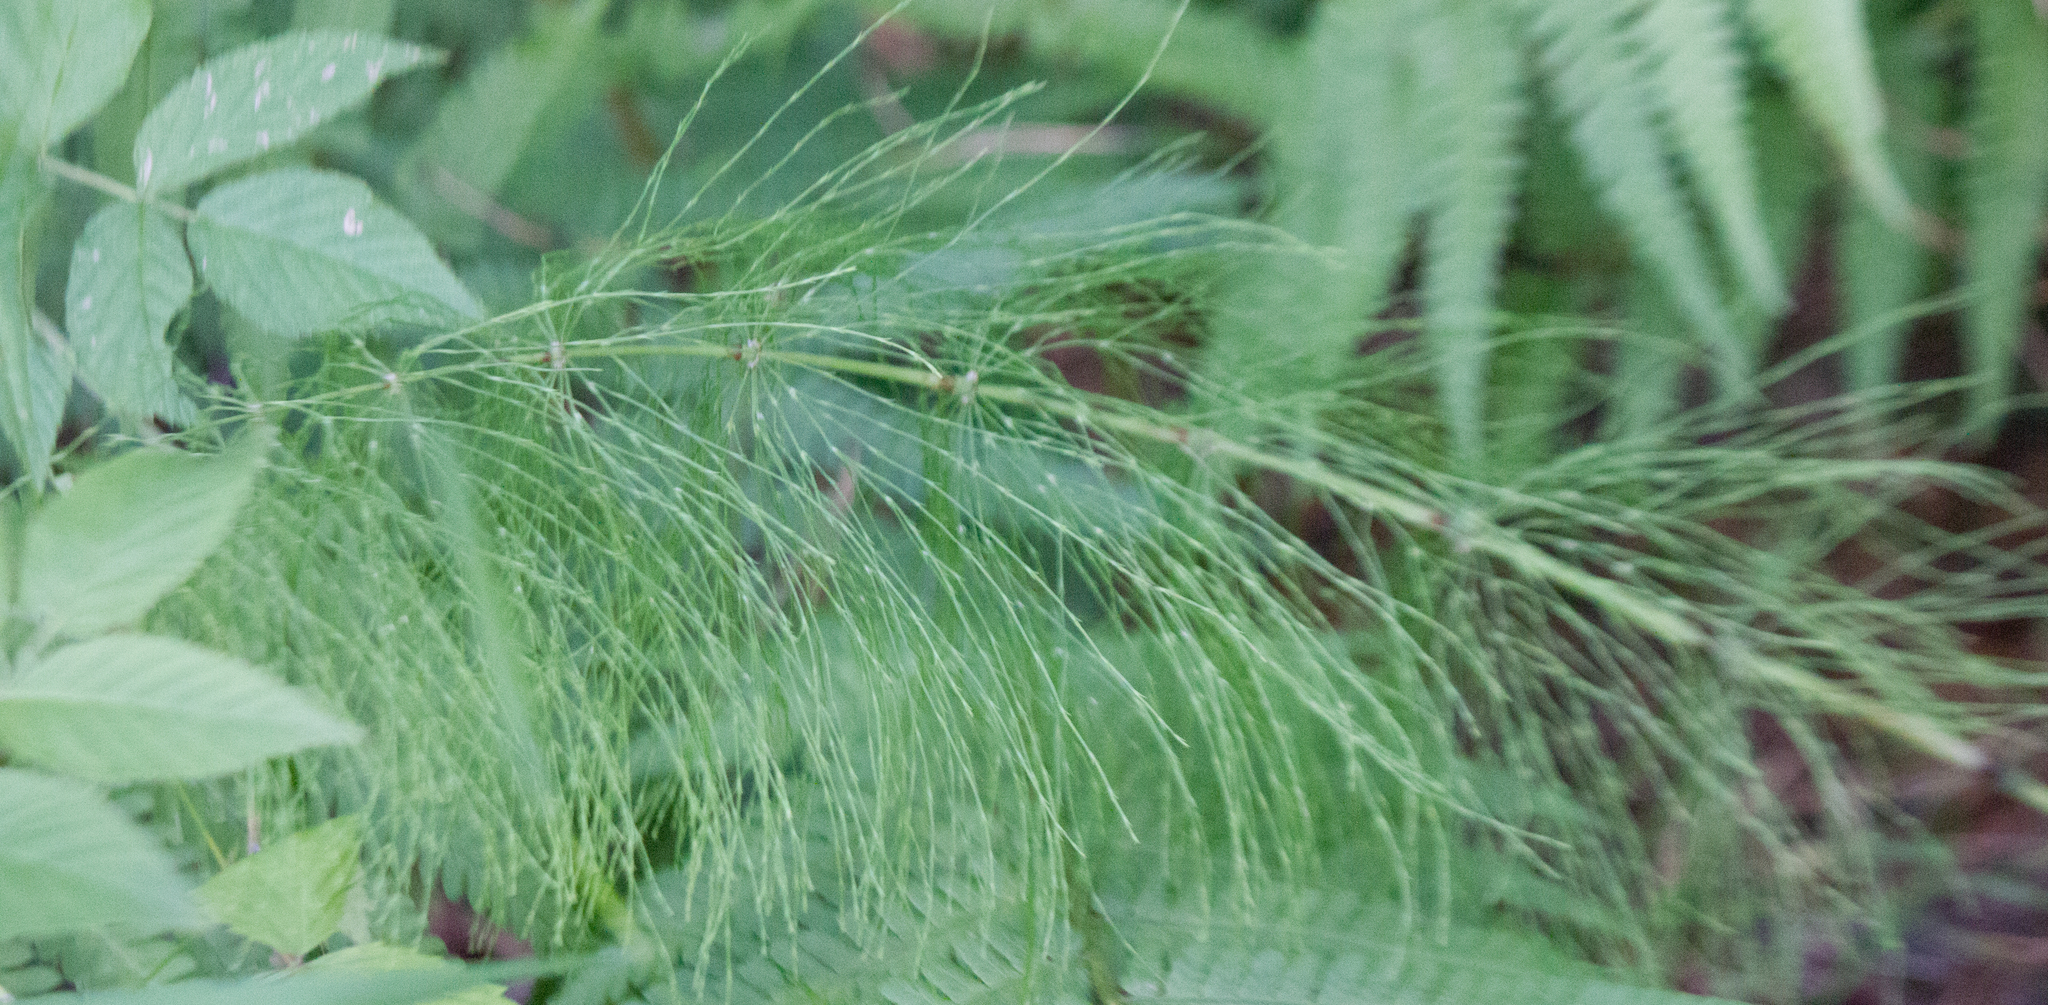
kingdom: Plantae
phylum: Tracheophyta
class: Polypodiopsida
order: Equisetales
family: Equisetaceae
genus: Equisetum
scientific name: Equisetum sylvaticum
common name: Wood horsetail
